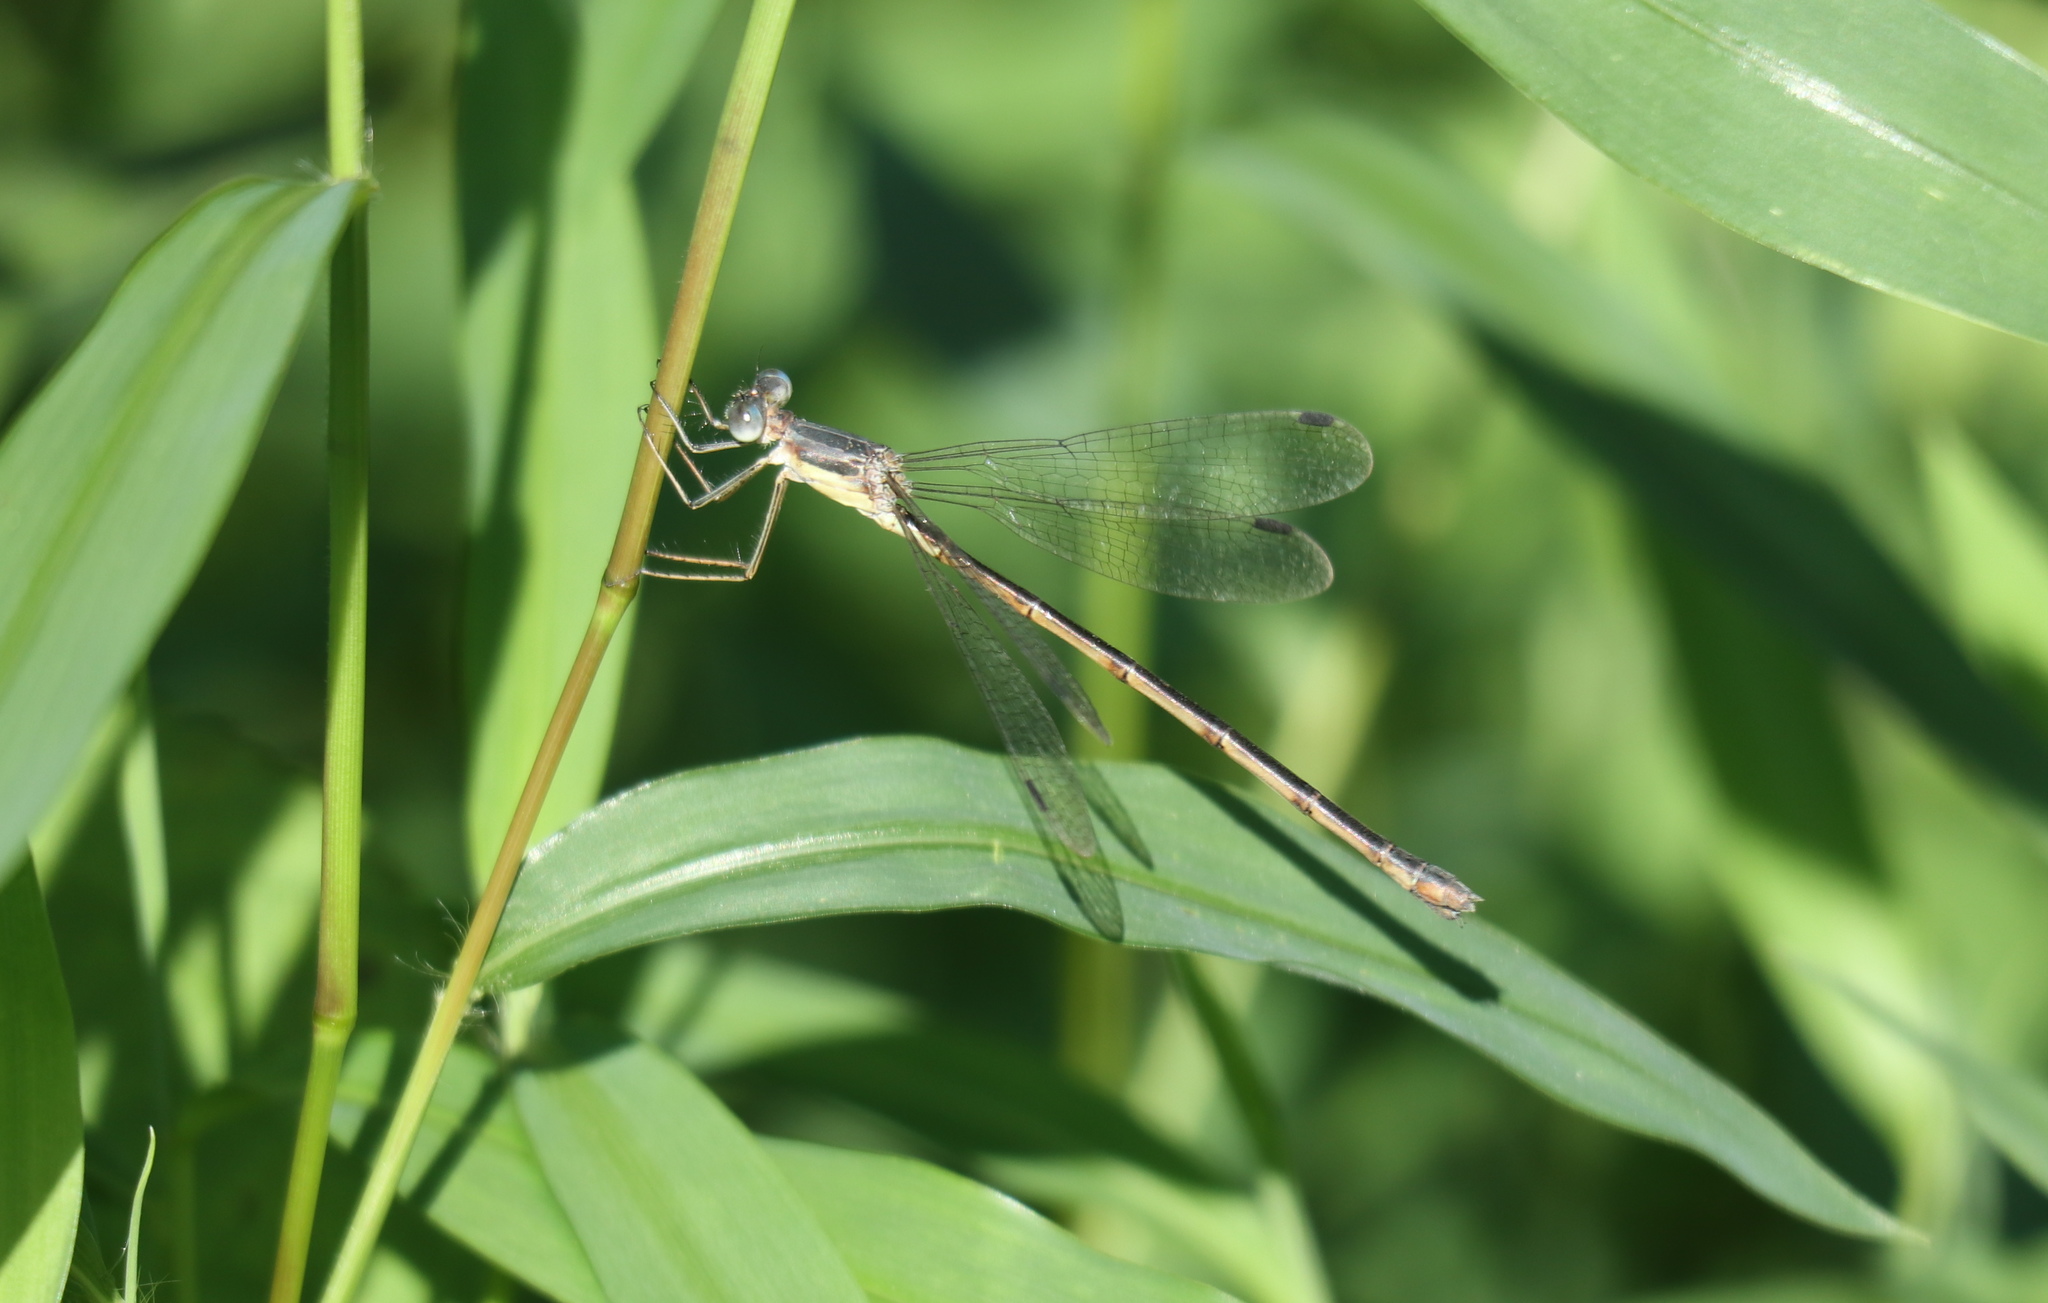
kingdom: Animalia
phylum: Arthropoda
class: Insecta
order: Odonata
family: Lestidae
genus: Lestes
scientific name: Lestes rectangularis
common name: Slender spreadwing
